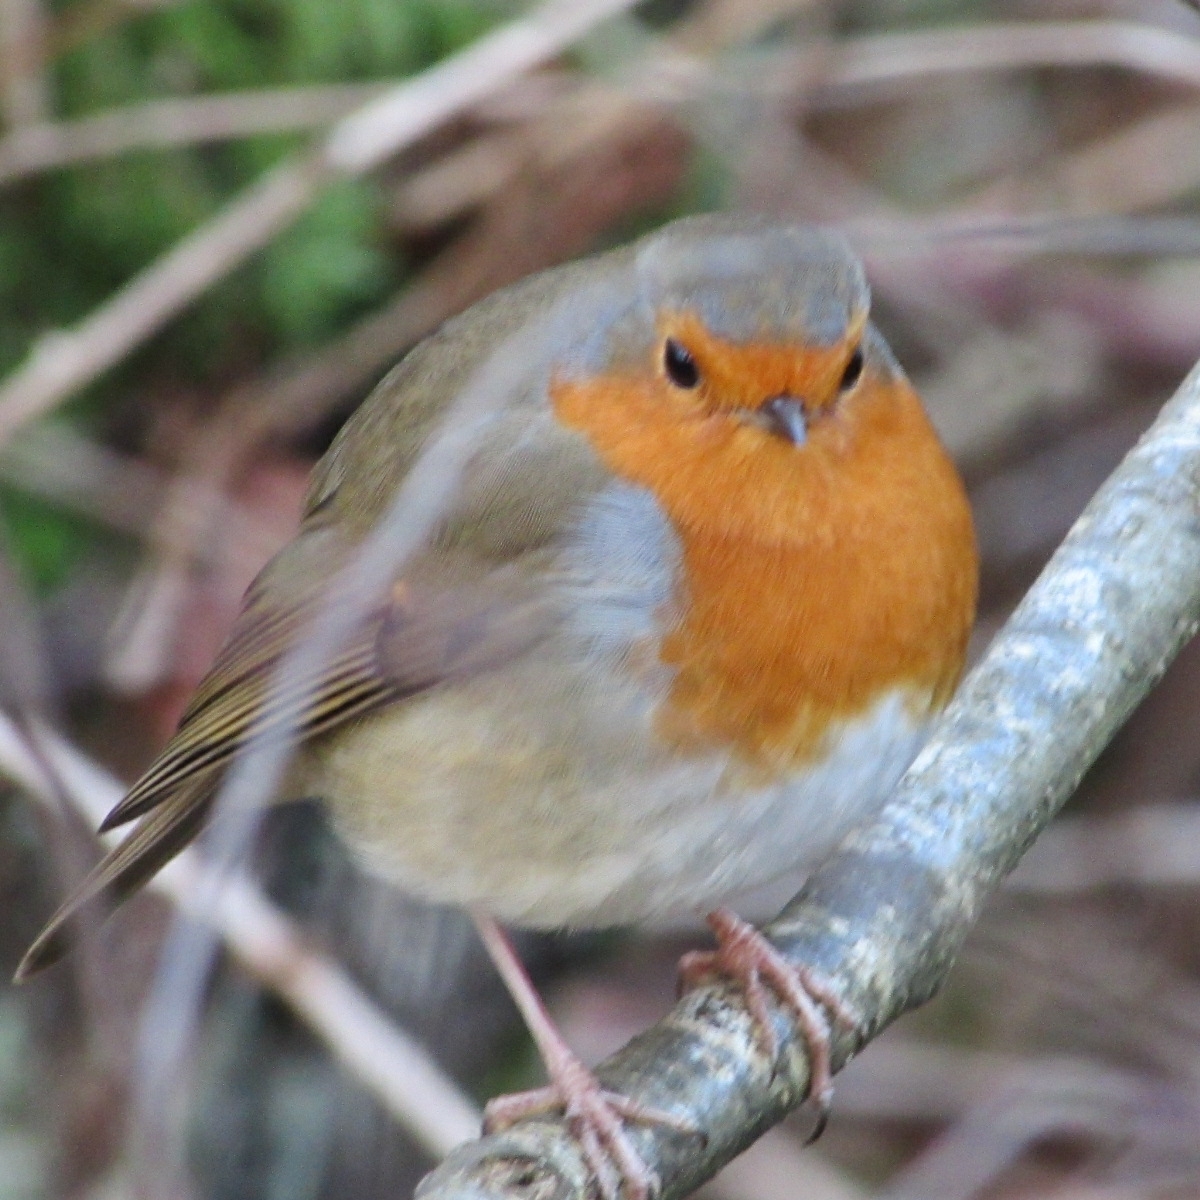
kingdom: Animalia
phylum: Chordata
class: Aves
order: Passeriformes
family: Muscicapidae
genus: Erithacus
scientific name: Erithacus rubecula
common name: European robin
